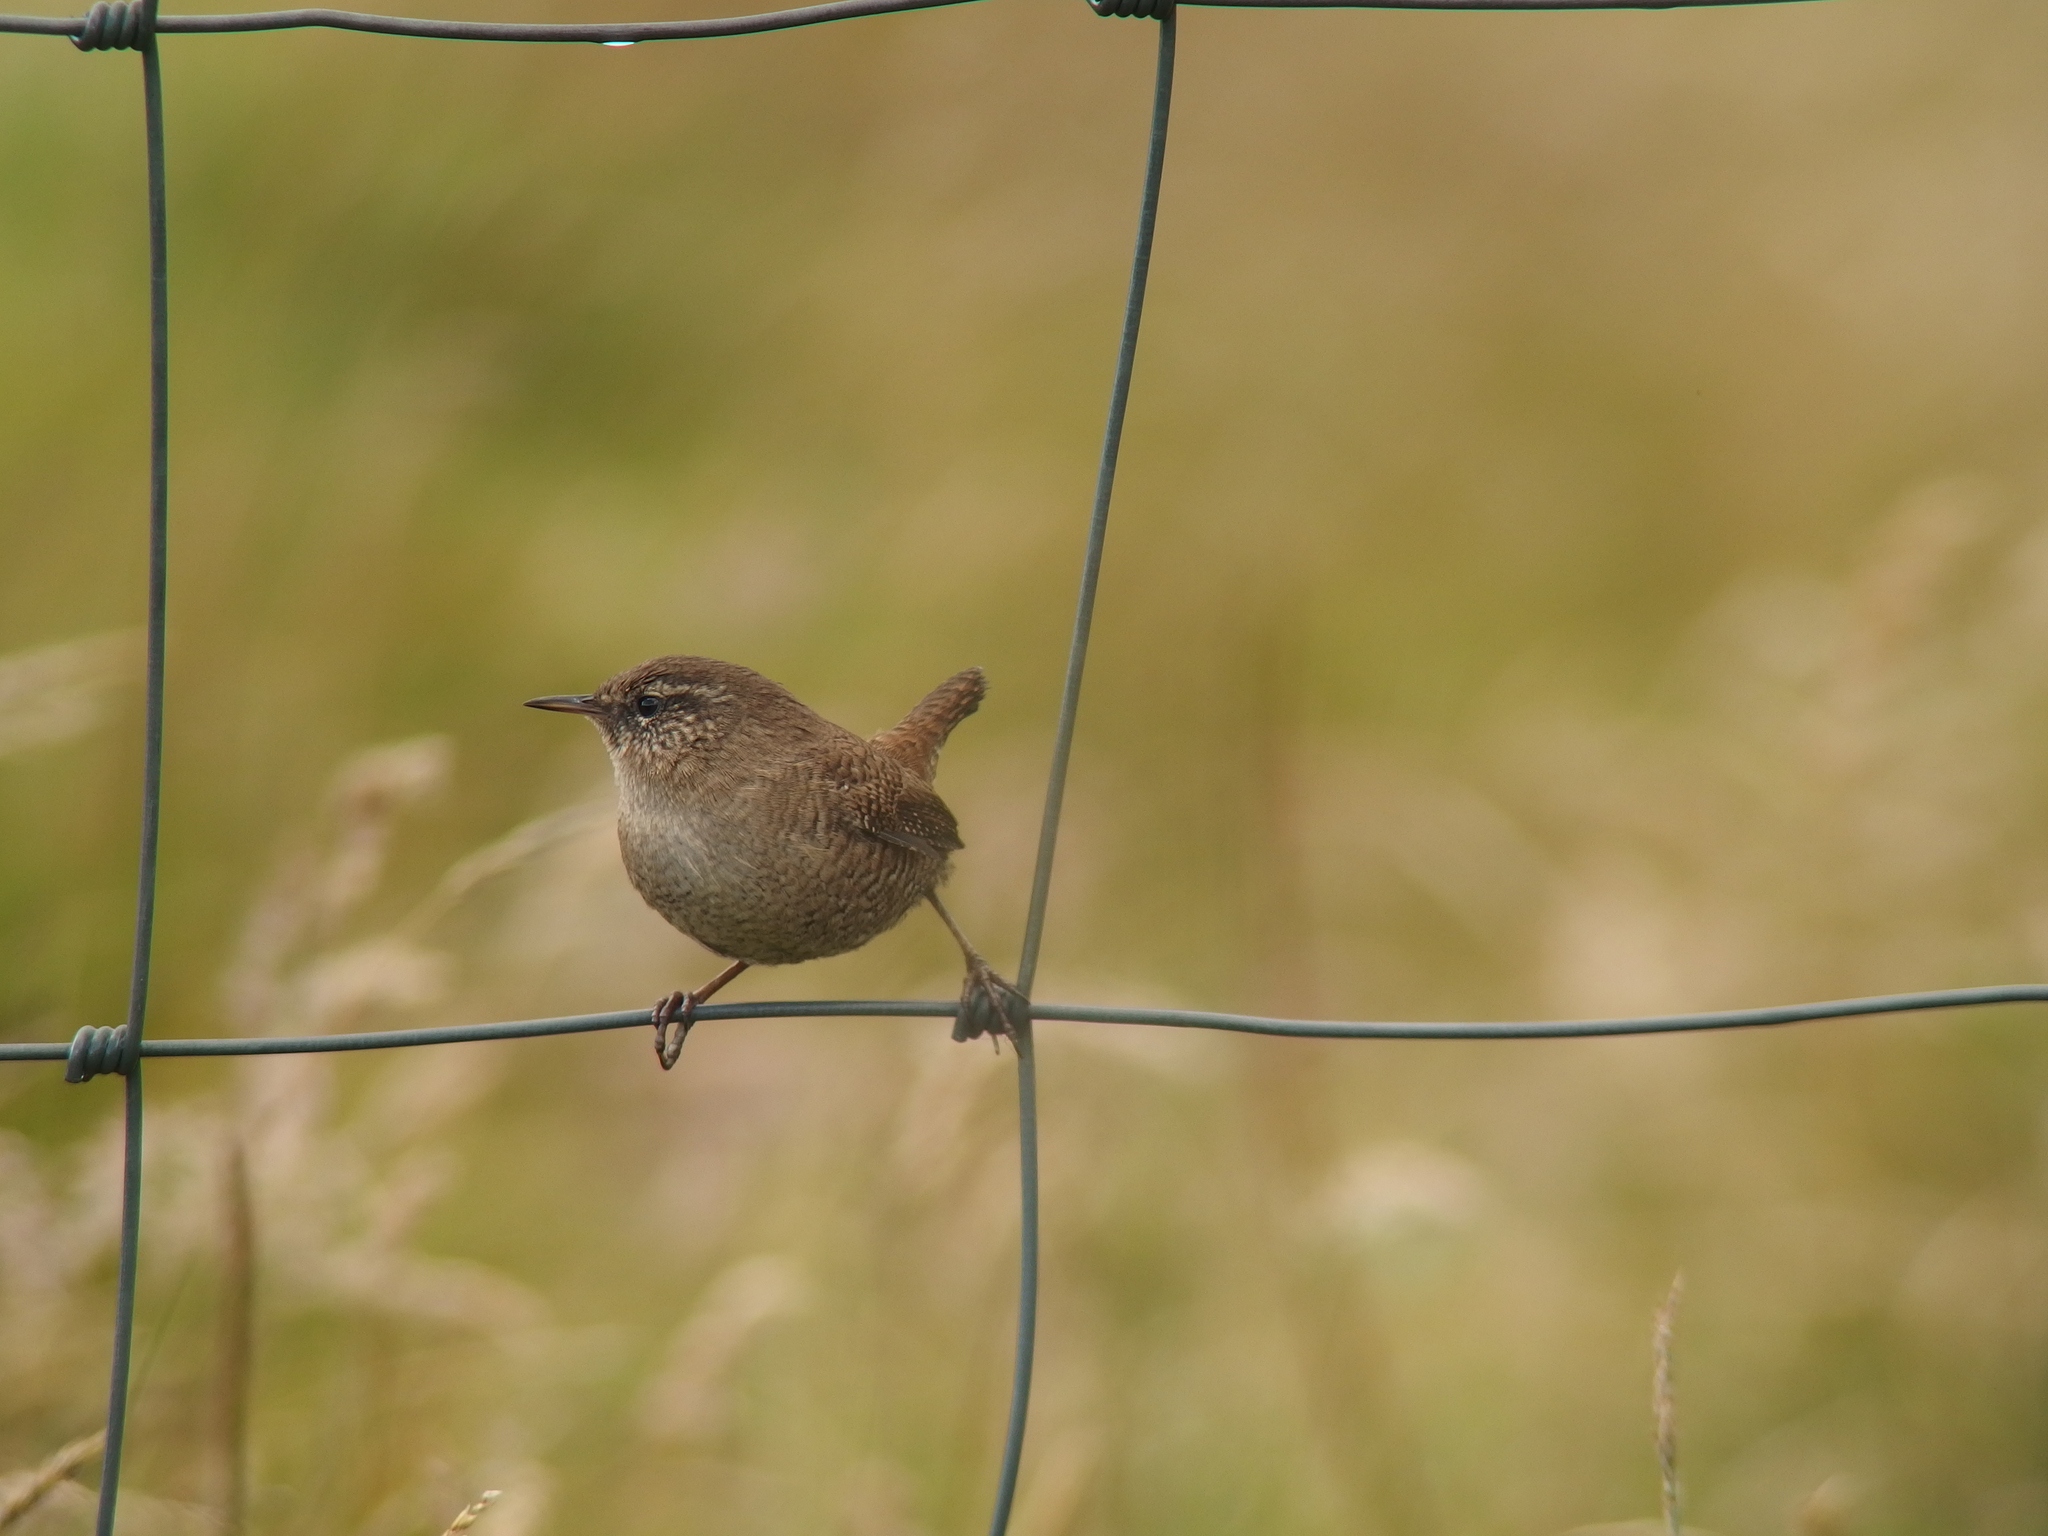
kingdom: Animalia
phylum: Chordata
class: Aves
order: Passeriformes
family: Troglodytidae
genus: Troglodytes
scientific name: Troglodytes troglodytes
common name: Eurasian wren
